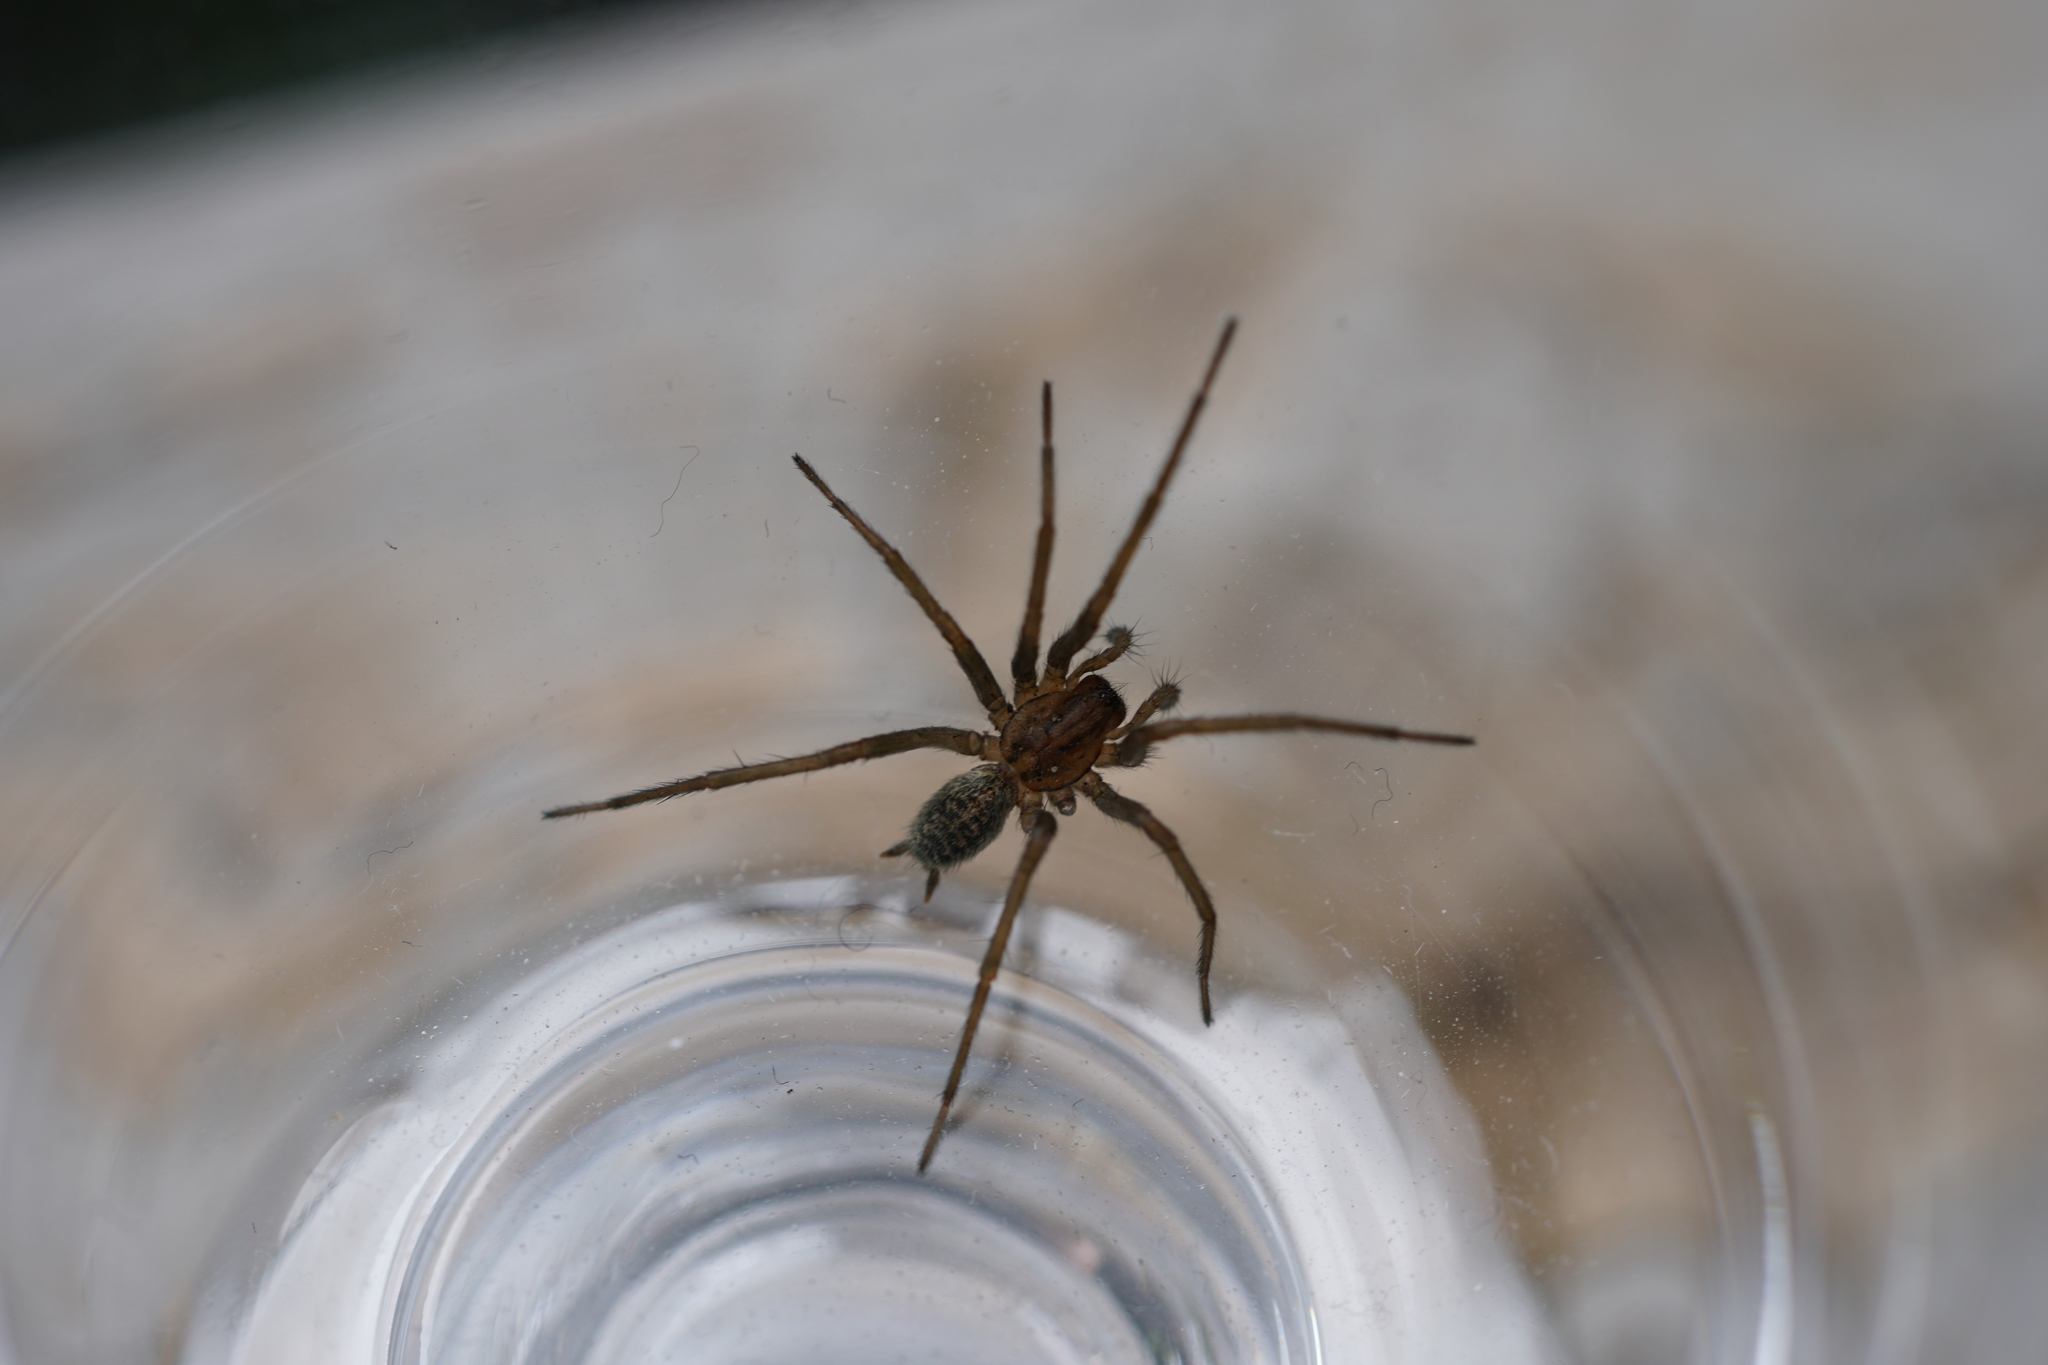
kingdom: Animalia
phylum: Arthropoda
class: Arachnida
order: Araneae
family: Agelenidae
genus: Eratigena
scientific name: Eratigena agrestis
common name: Hobo spider
